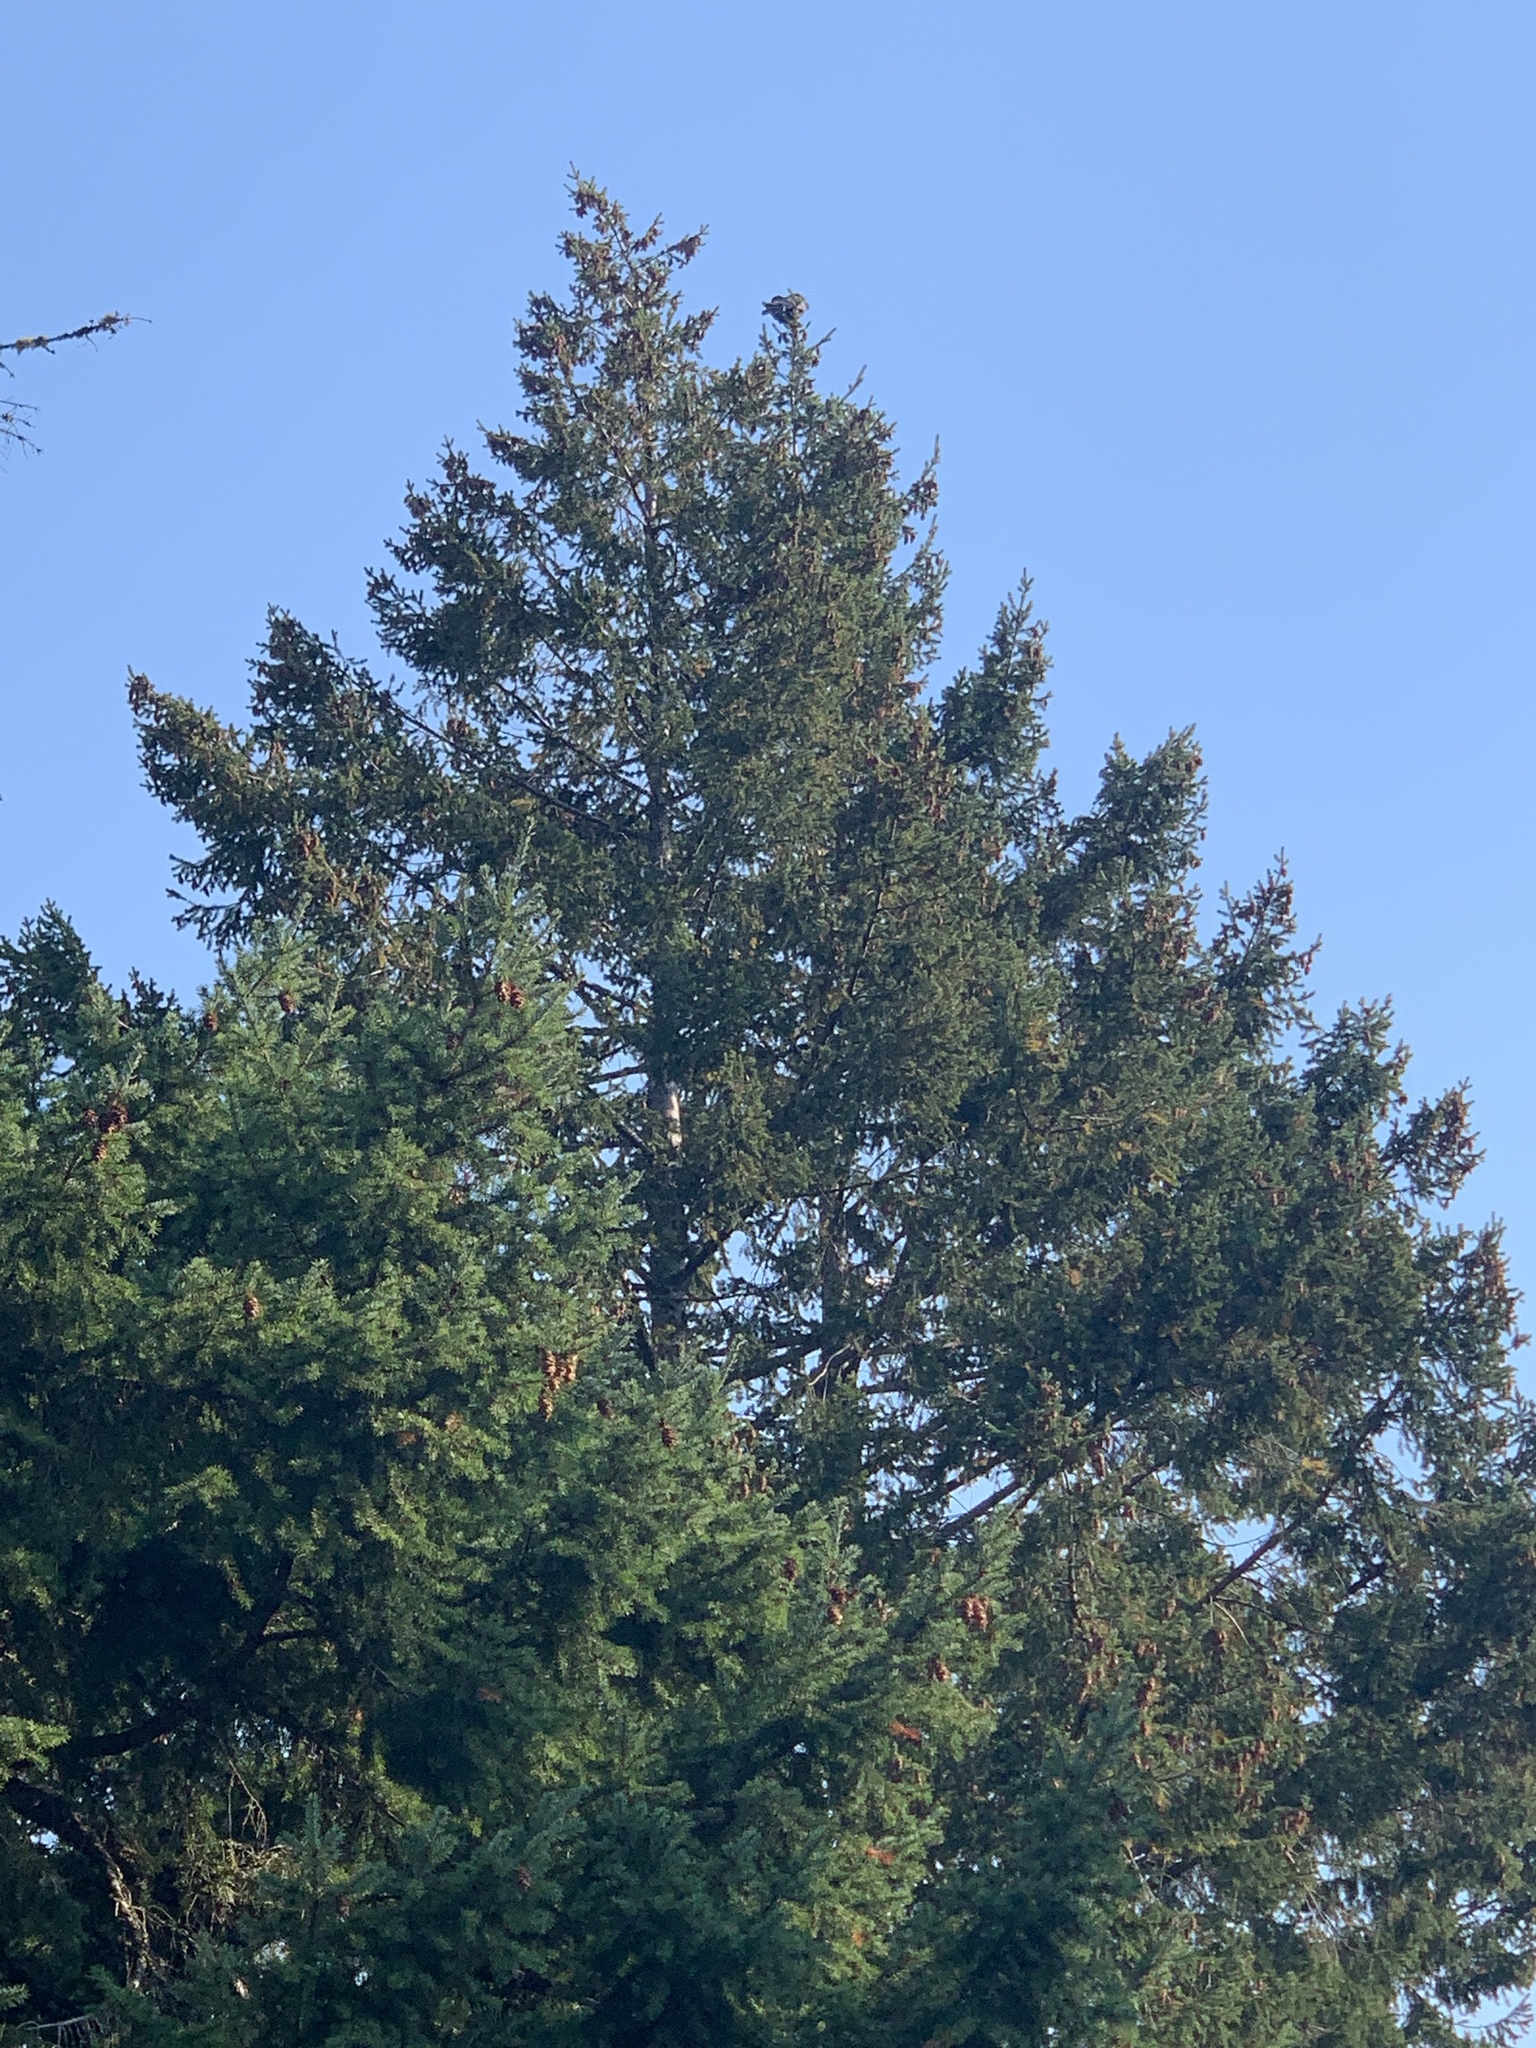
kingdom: Animalia
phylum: Chordata
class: Aves
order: Passeriformes
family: Corvidae
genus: Corvus
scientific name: Corvus corax
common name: Common raven
